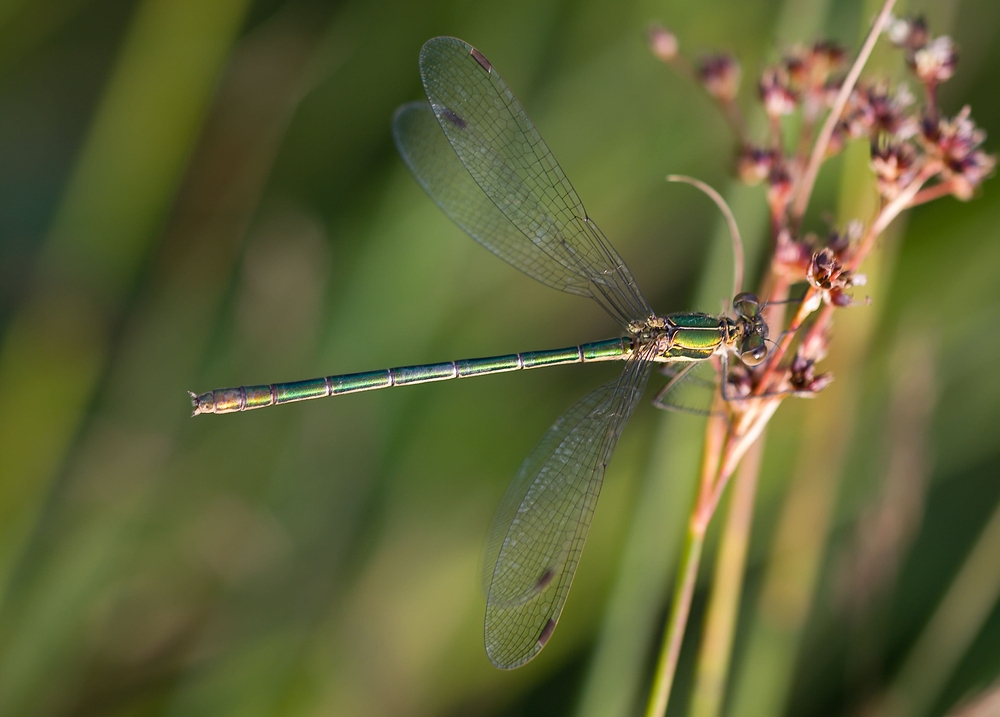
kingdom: Animalia
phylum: Arthropoda
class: Insecta
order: Odonata
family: Lestidae
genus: Lestes
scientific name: Lestes sponsa
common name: Common spreadwing
